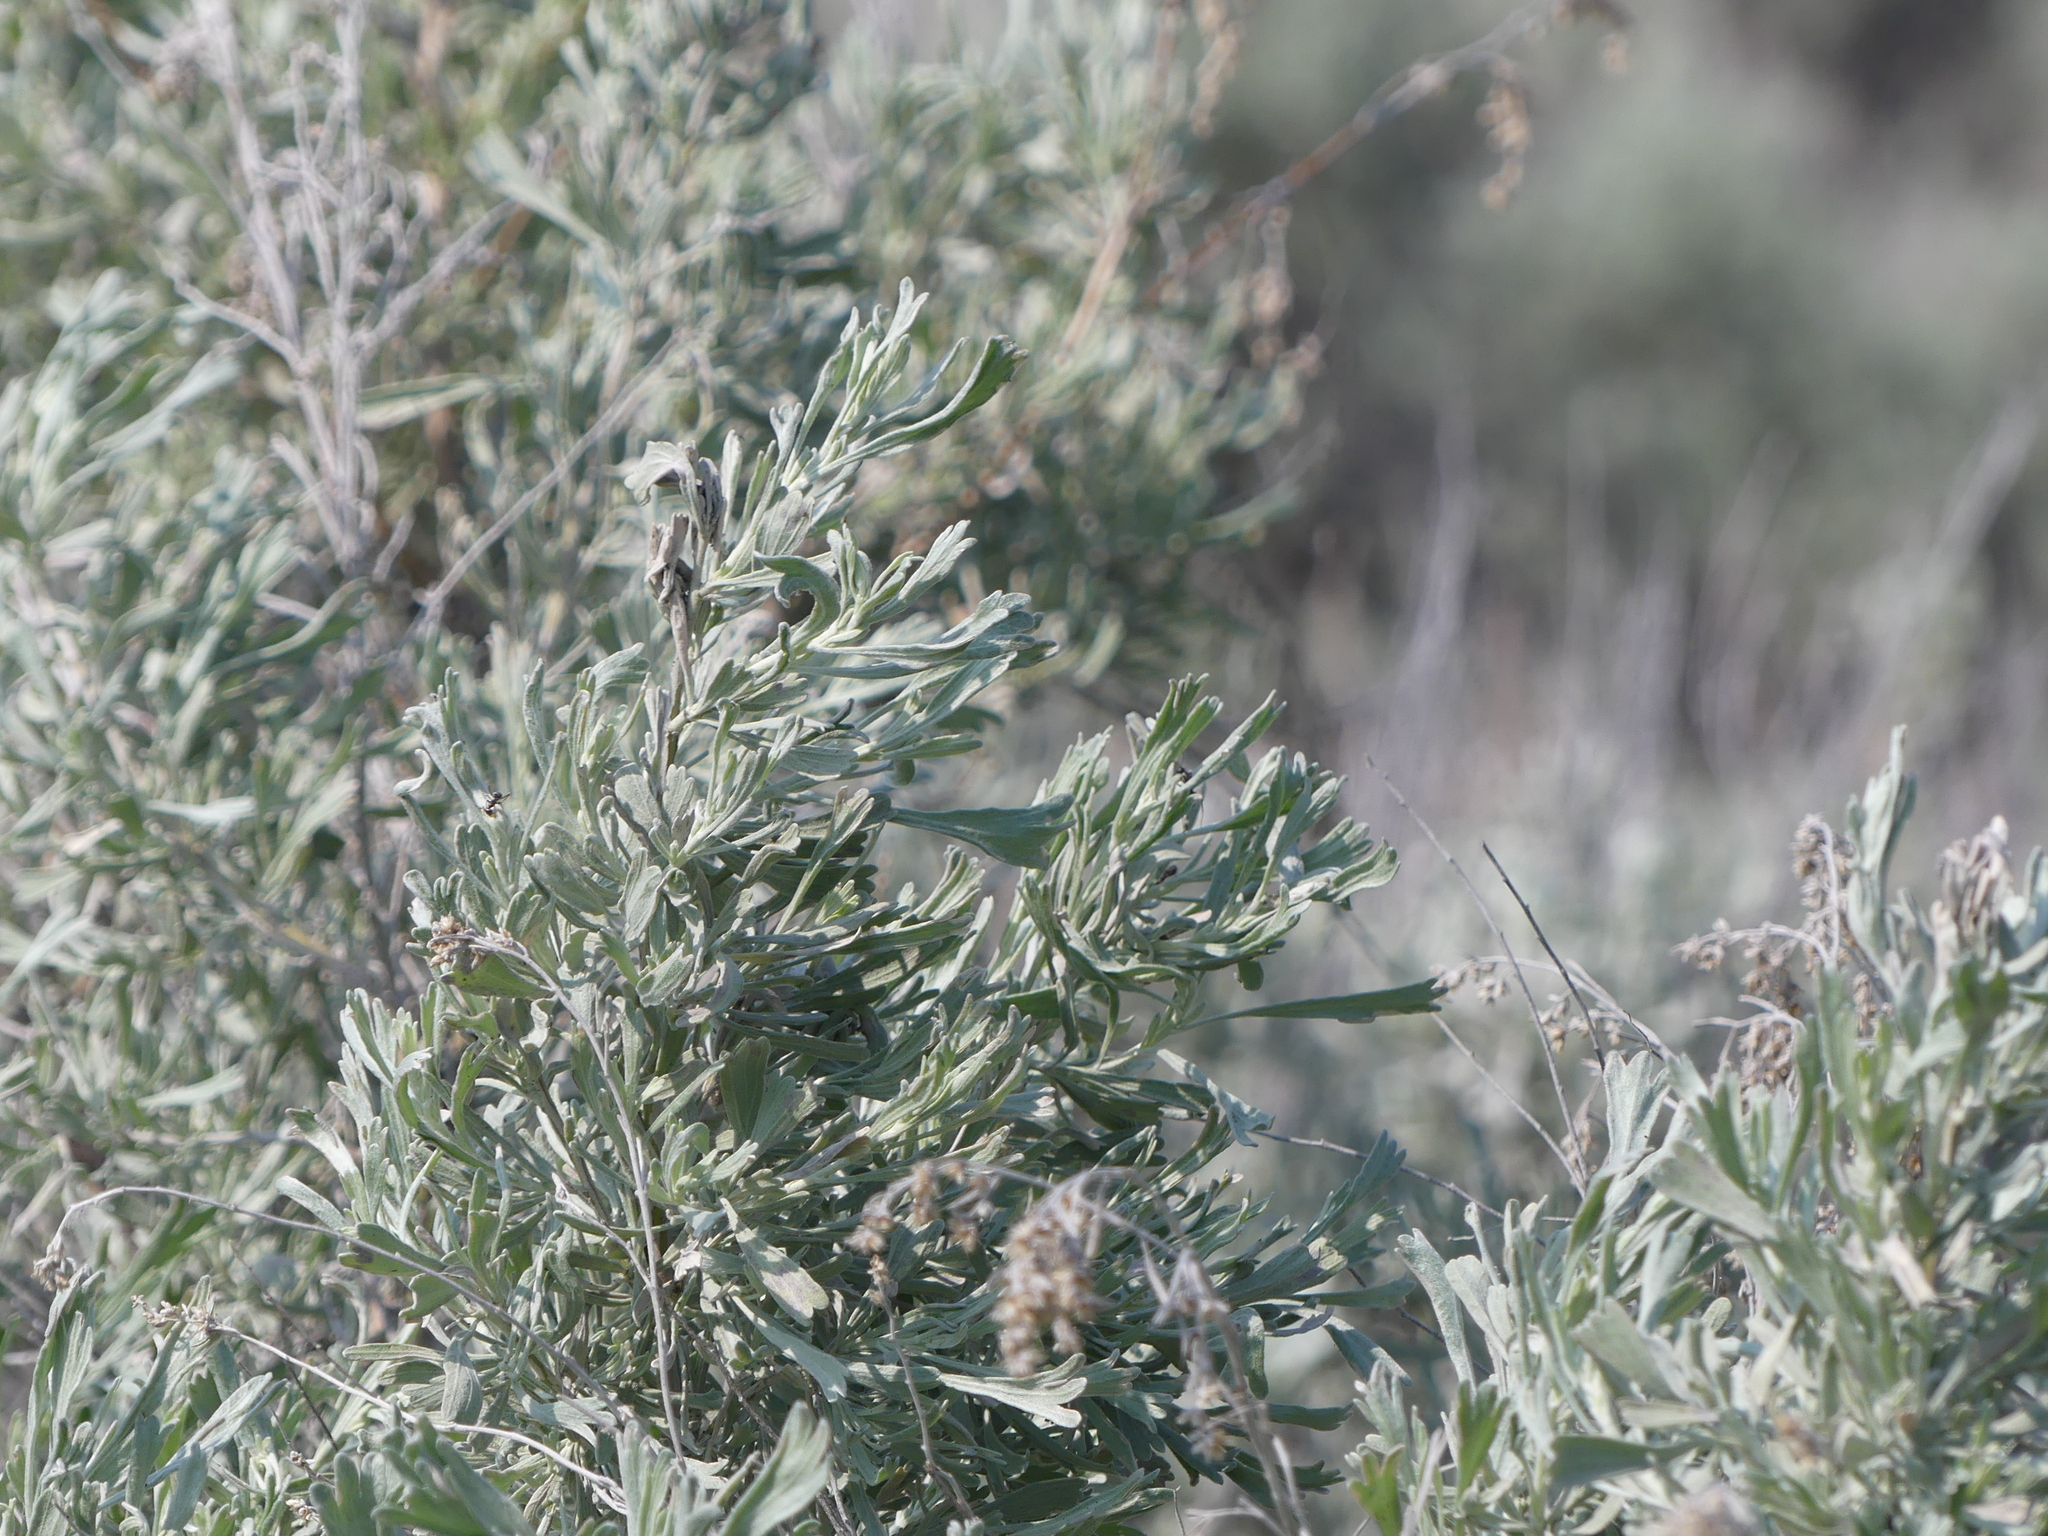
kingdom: Plantae
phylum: Tracheophyta
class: Magnoliopsida
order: Asterales
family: Asteraceae
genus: Artemisia
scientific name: Artemisia tridentata
